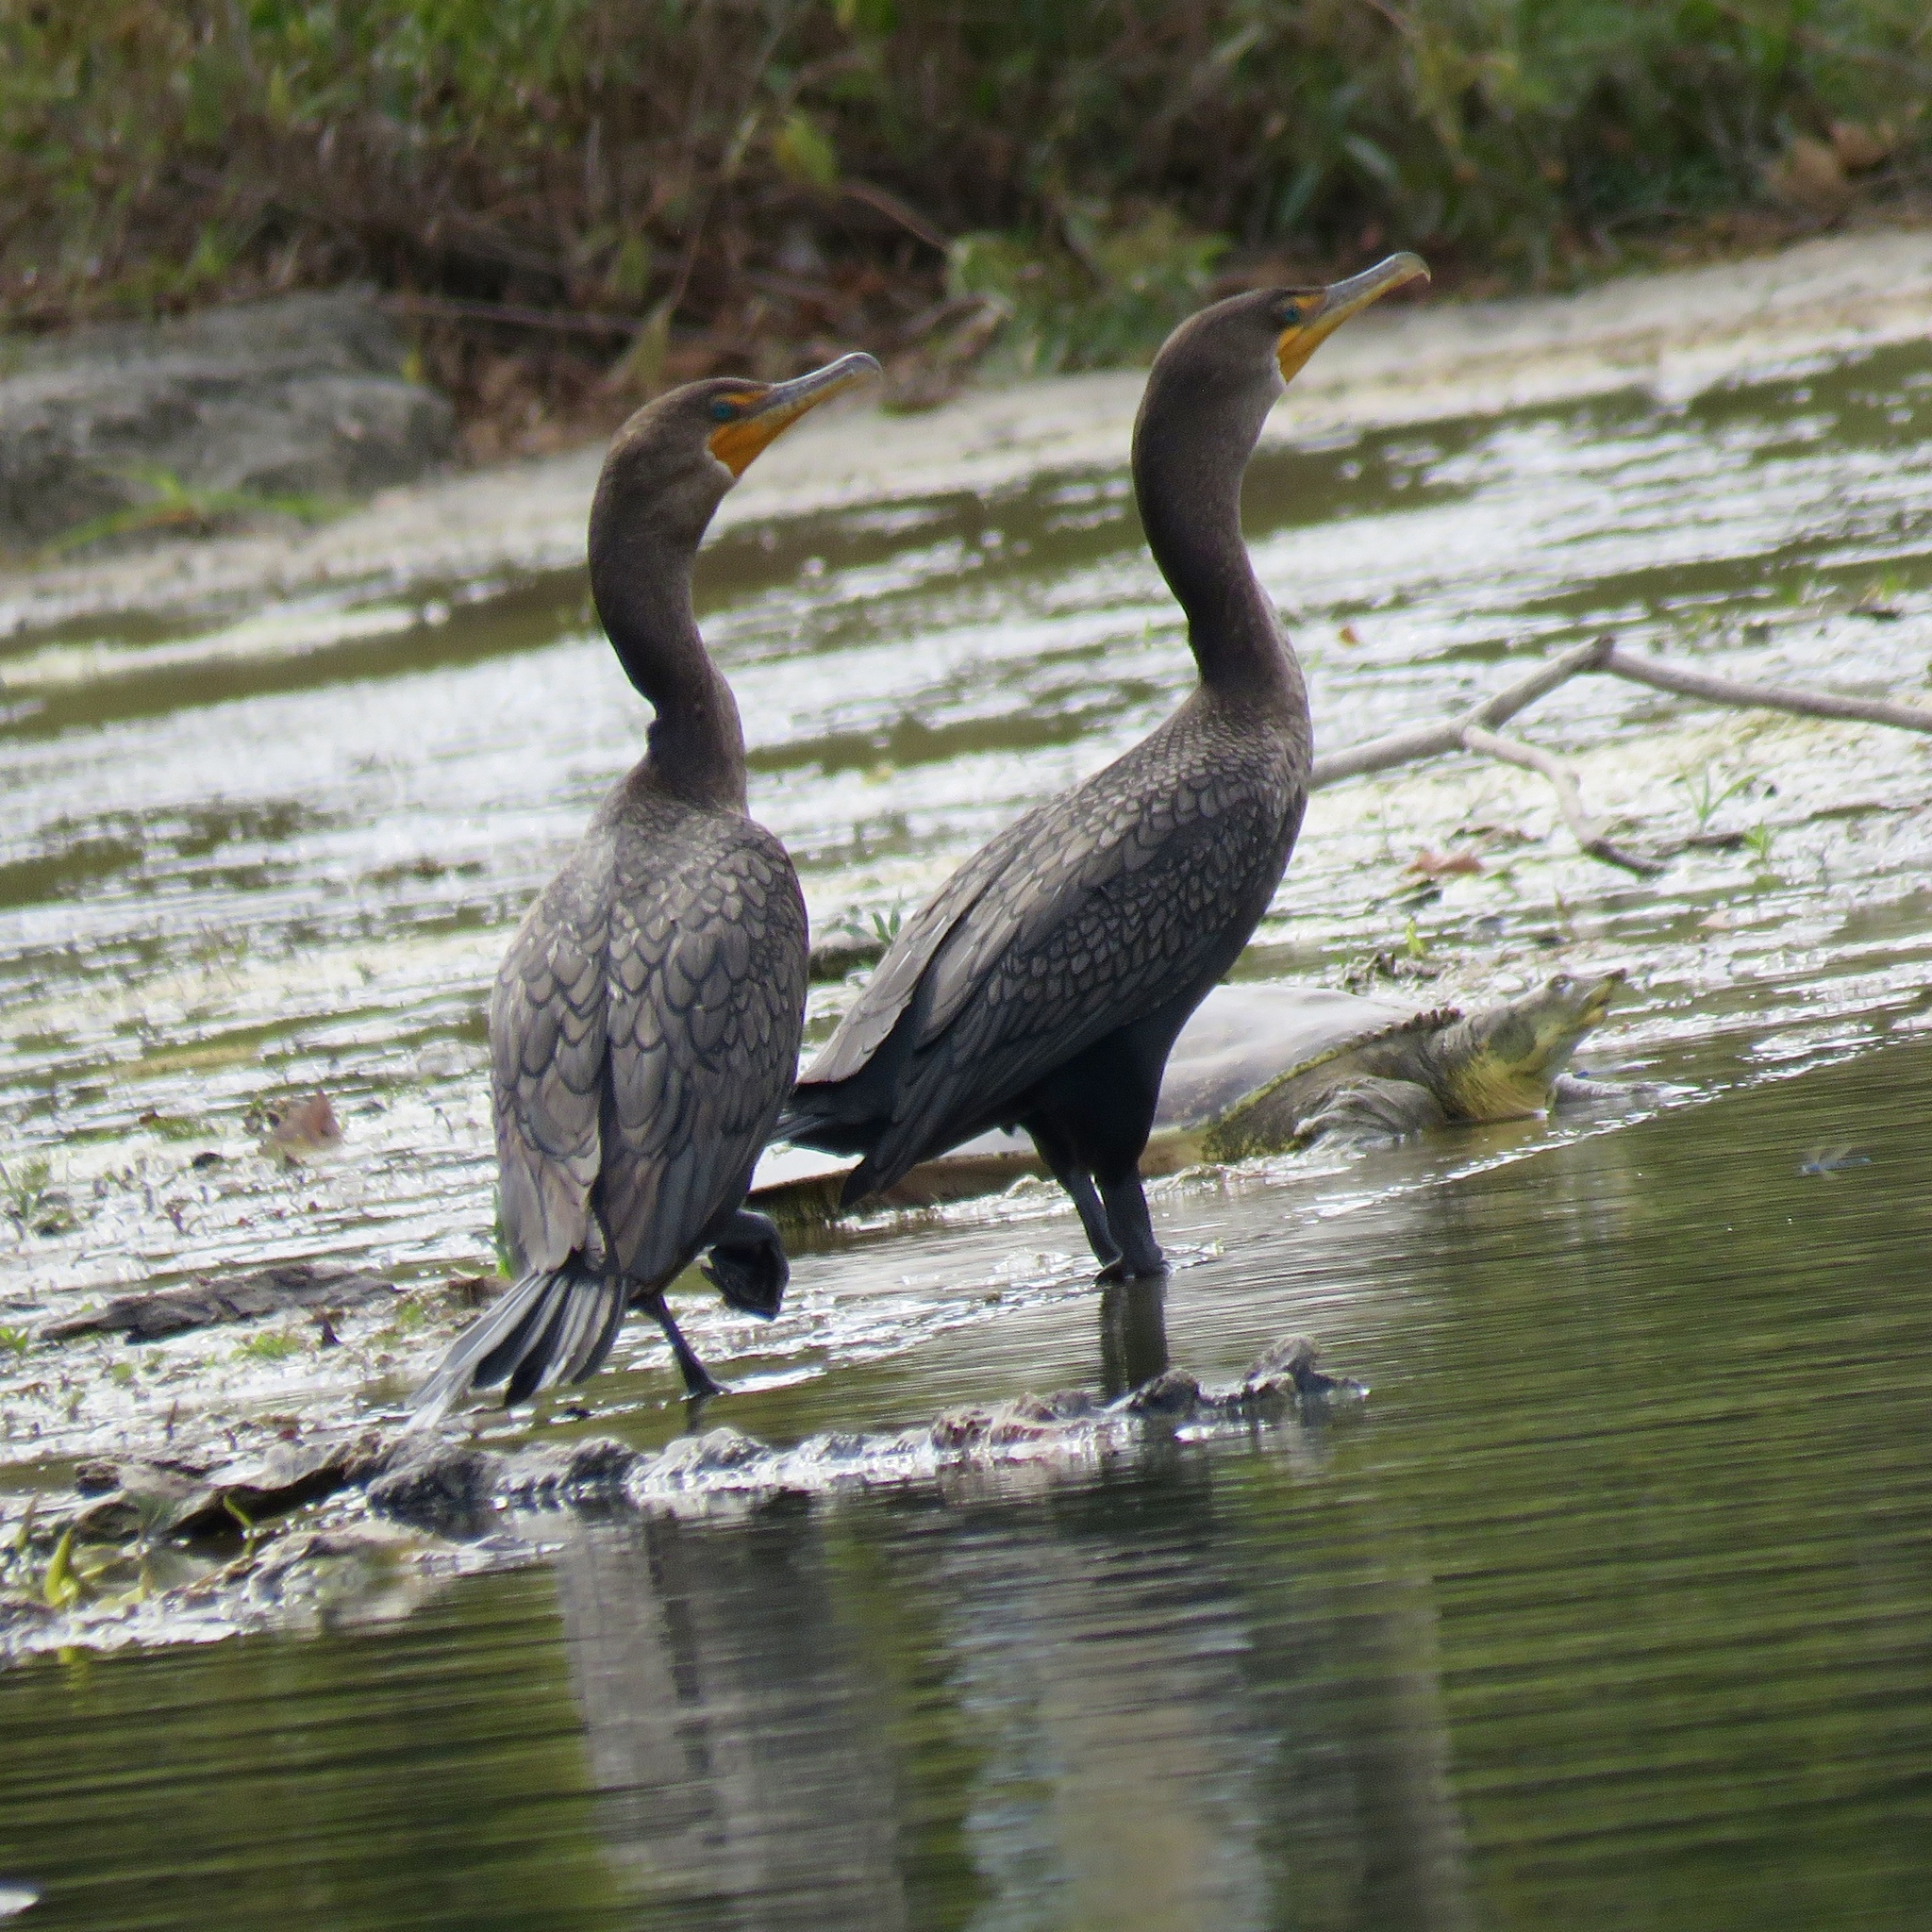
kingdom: Animalia
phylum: Chordata
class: Aves
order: Suliformes
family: Phalacrocoracidae
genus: Phalacrocorax
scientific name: Phalacrocorax auritus
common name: Double-crested cormorant
